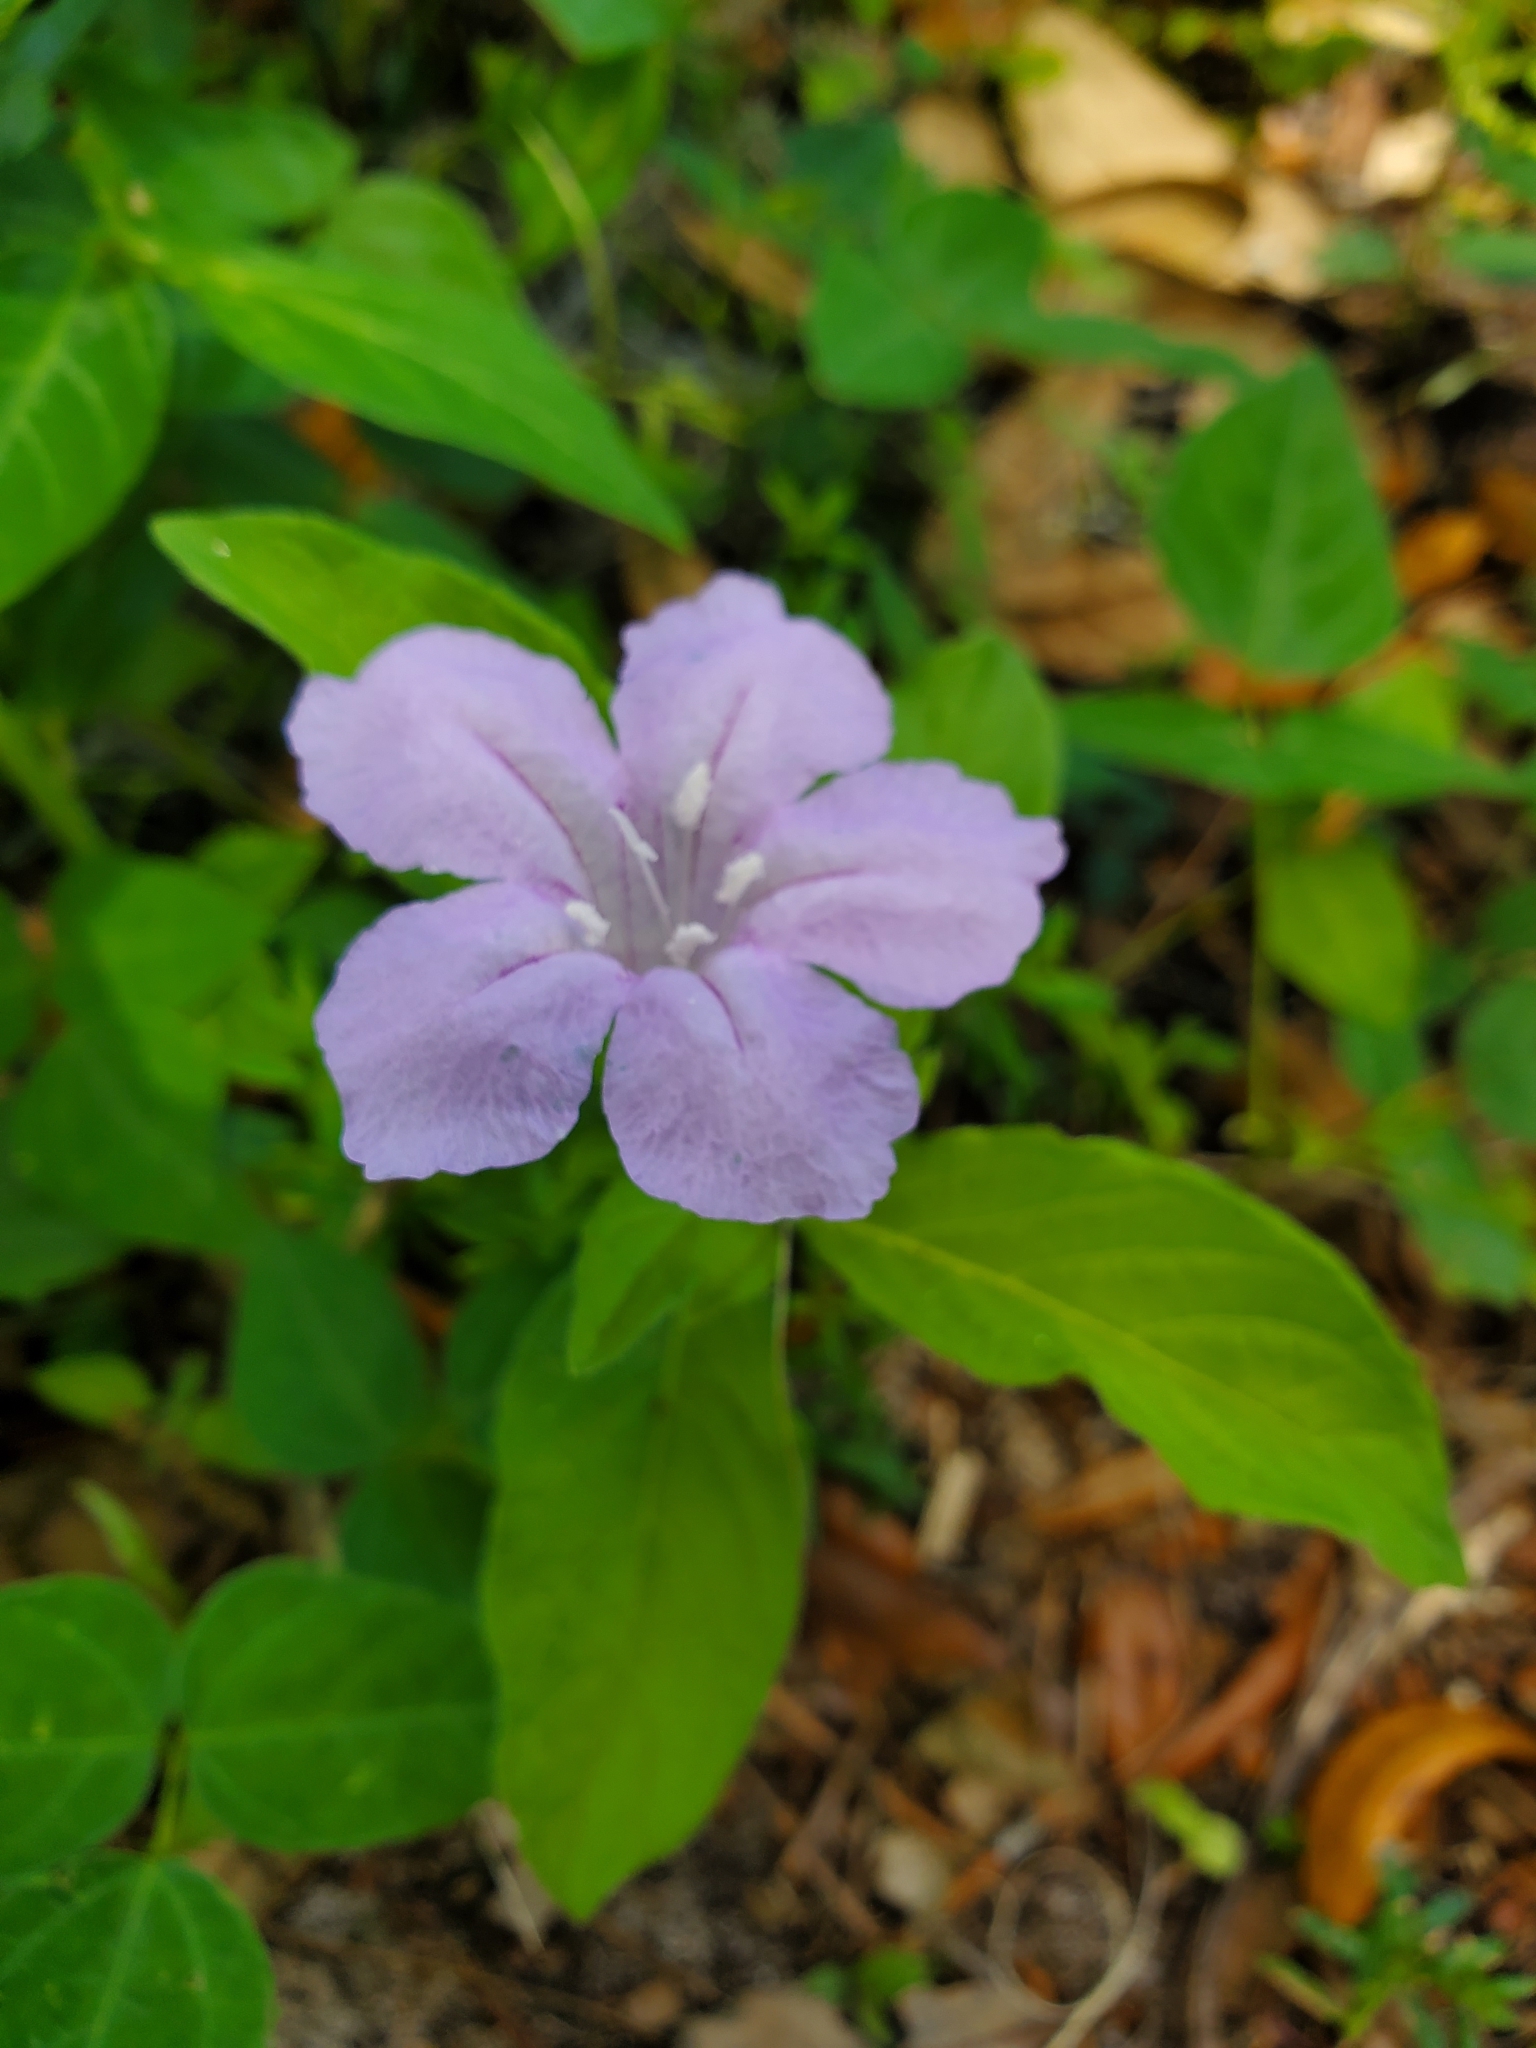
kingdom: Plantae
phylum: Tracheophyta
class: Magnoliopsida
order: Lamiales
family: Acanthaceae
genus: Ruellia
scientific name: Ruellia caroliniensis
